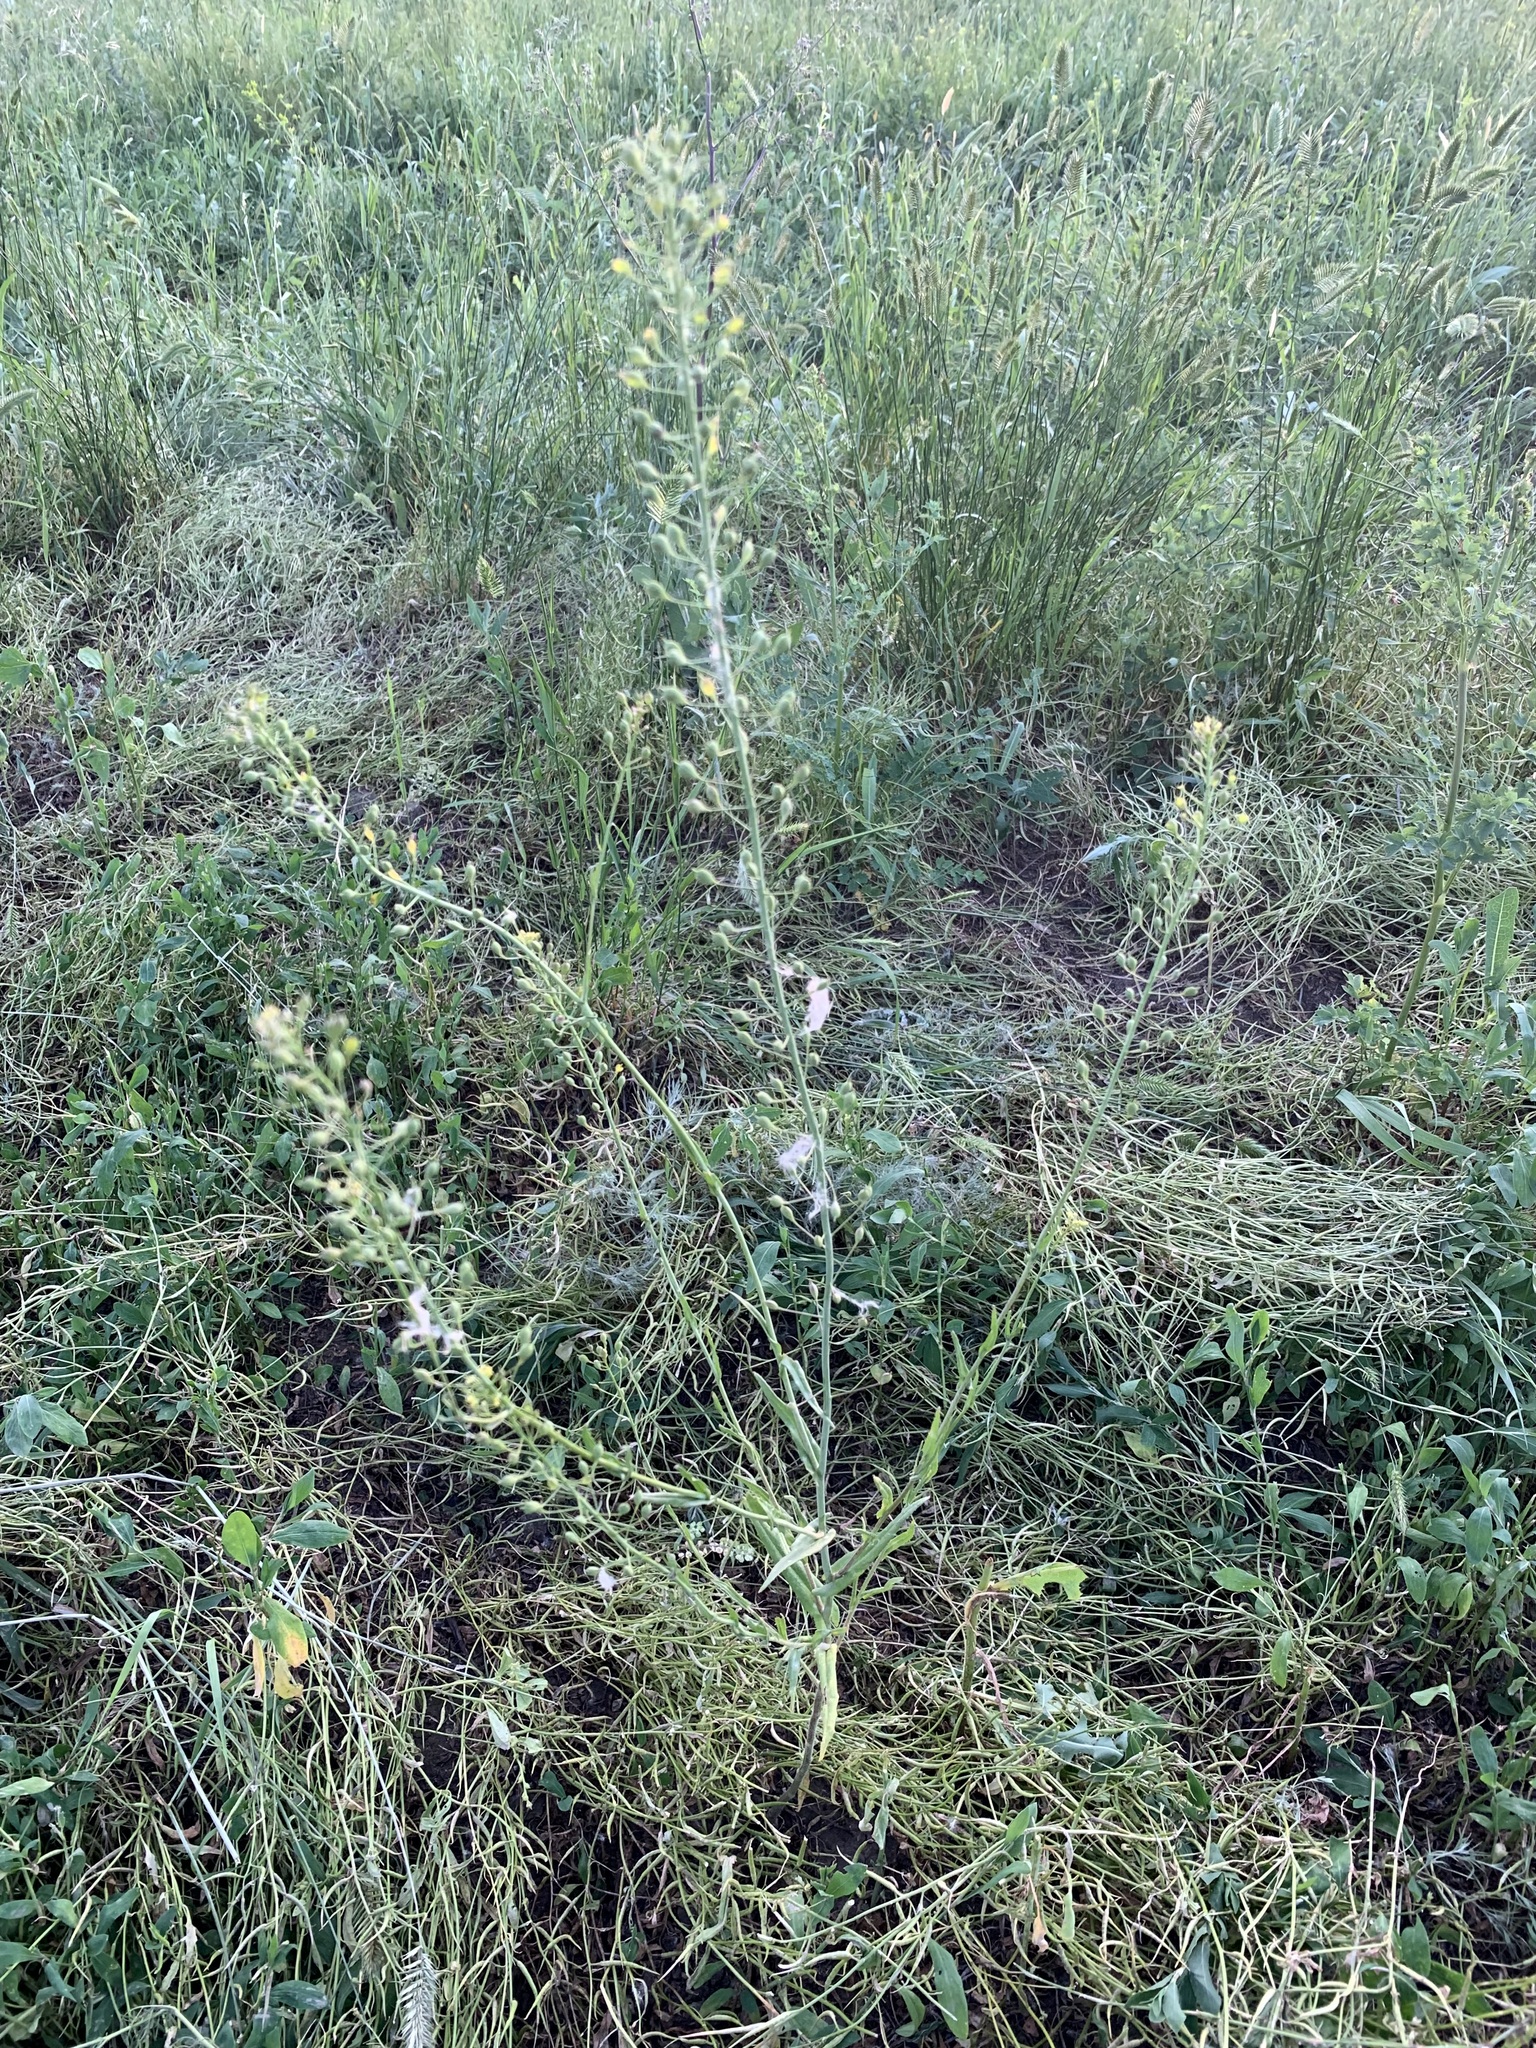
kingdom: Plantae
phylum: Tracheophyta
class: Magnoliopsida
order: Brassicales
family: Brassicaceae
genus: Camelina
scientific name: Camelina microcarpa
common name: Lesser gold-of-pleasure
